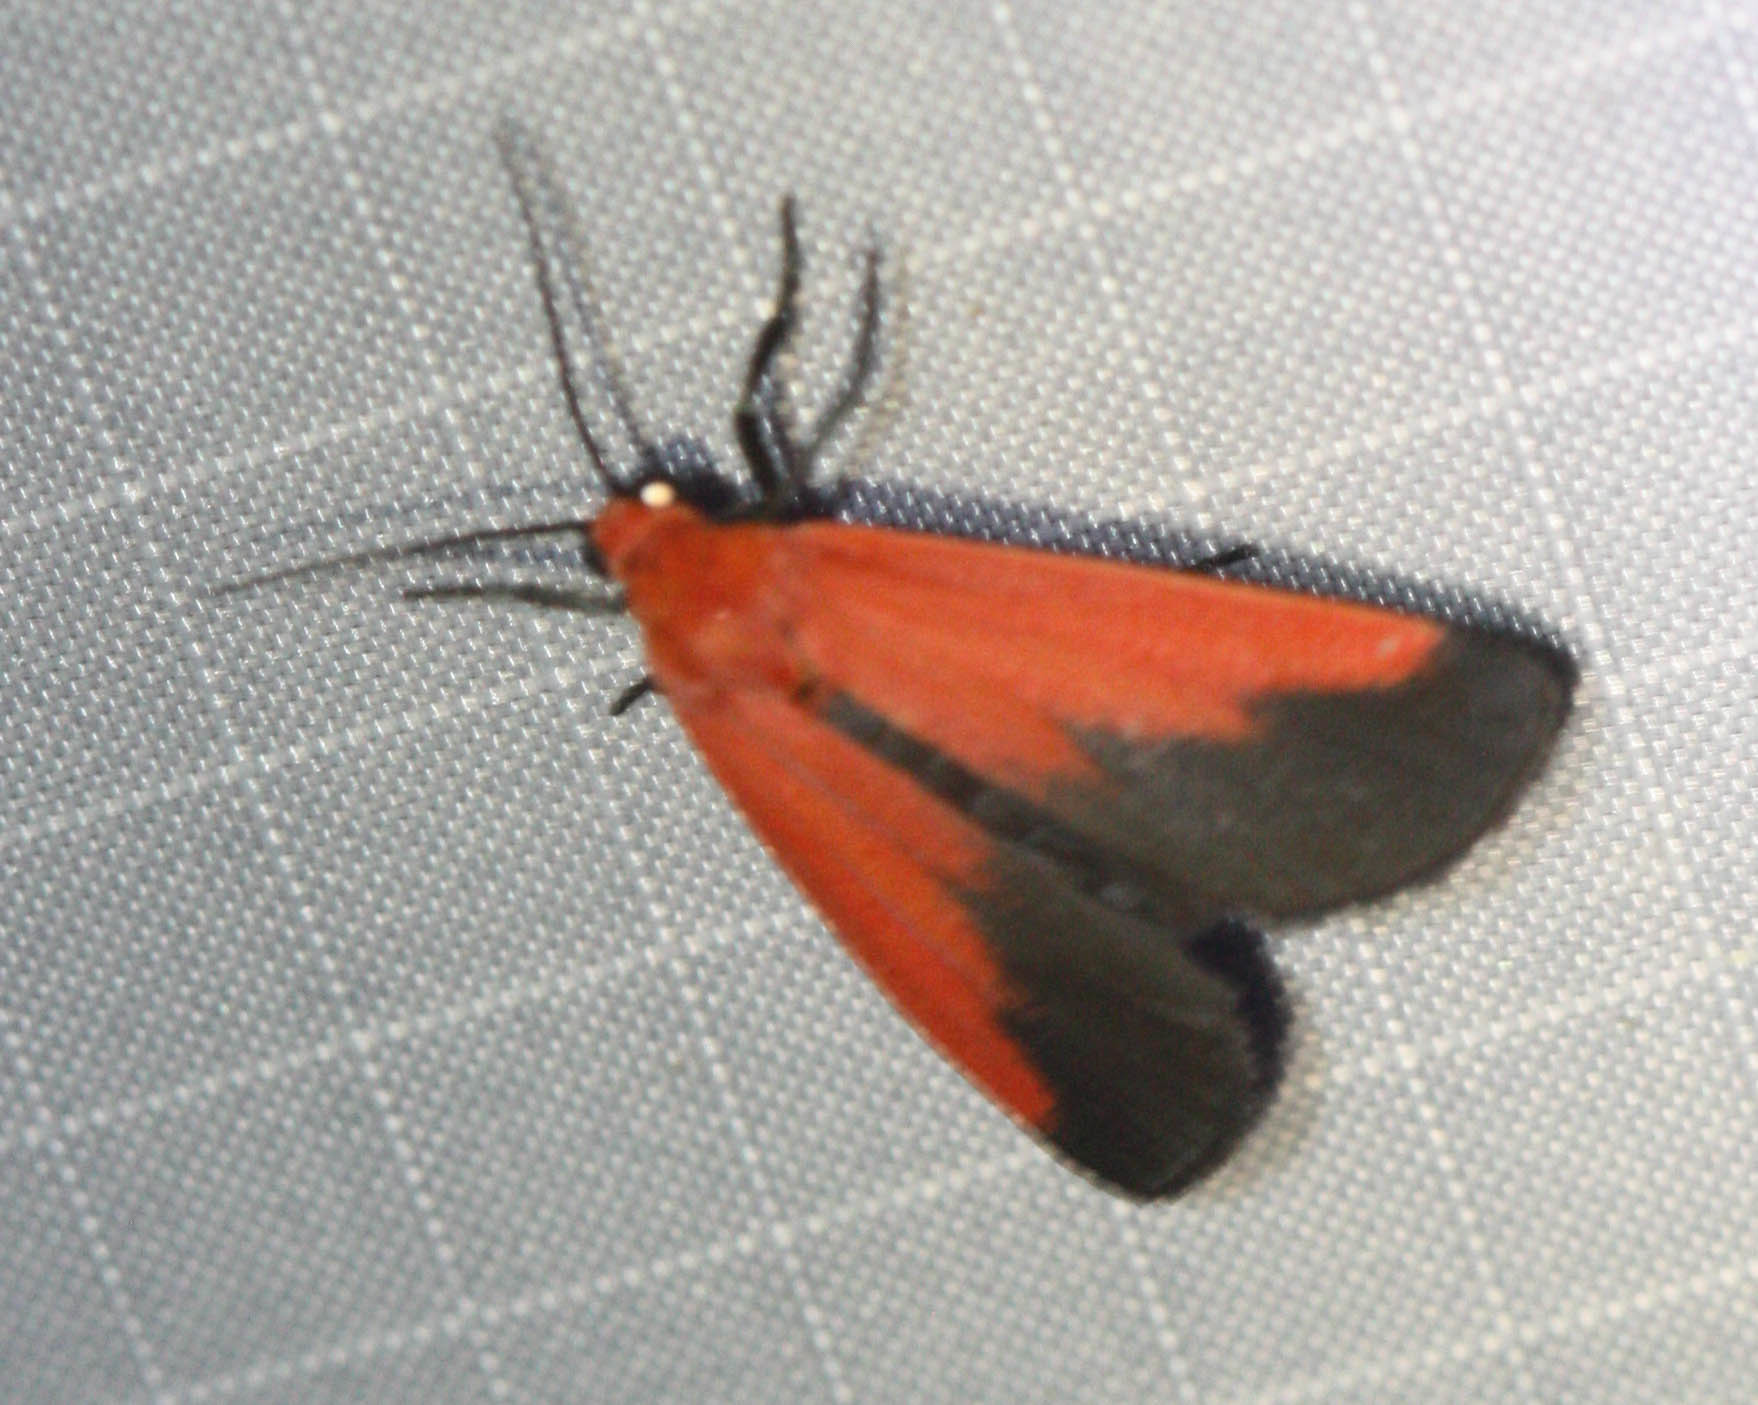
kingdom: Animalia
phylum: Arthropoda
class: Insecta
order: Lepidoptera
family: Erebidae
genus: Ptychoglene
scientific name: Ptychoglene coccinea
